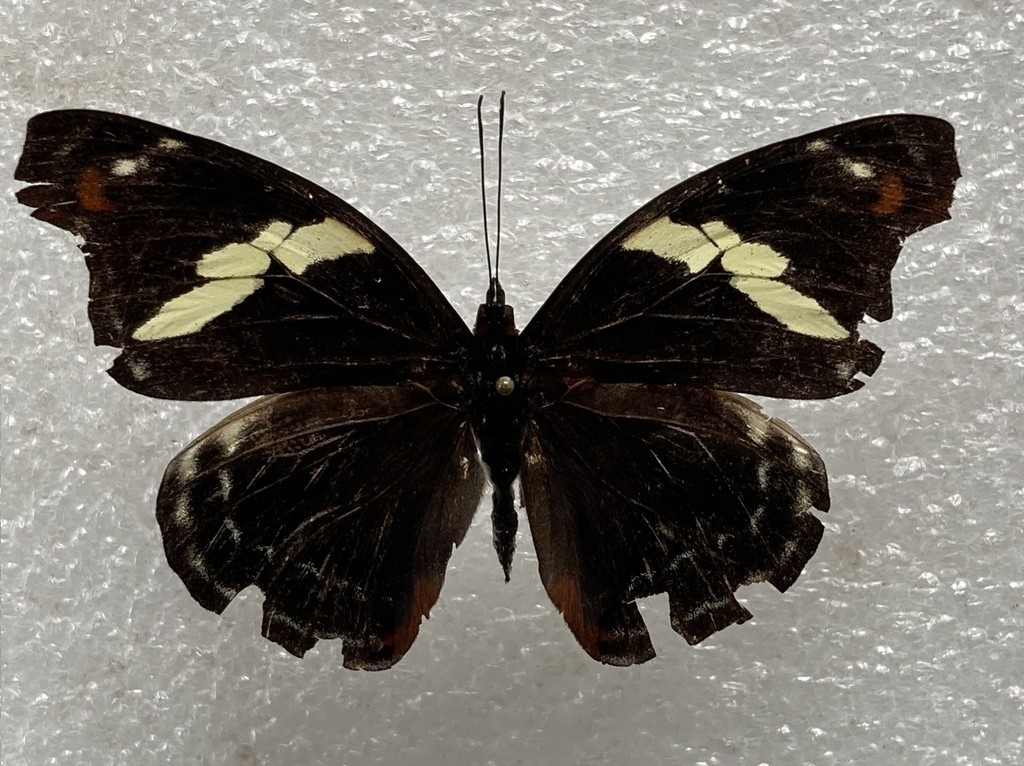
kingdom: Animalia
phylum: Arthropoda
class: Insecta
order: Lepidoptera
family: Nymphalidae
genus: Catonephele
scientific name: Catonephele numilia
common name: Blue-frosted banner
